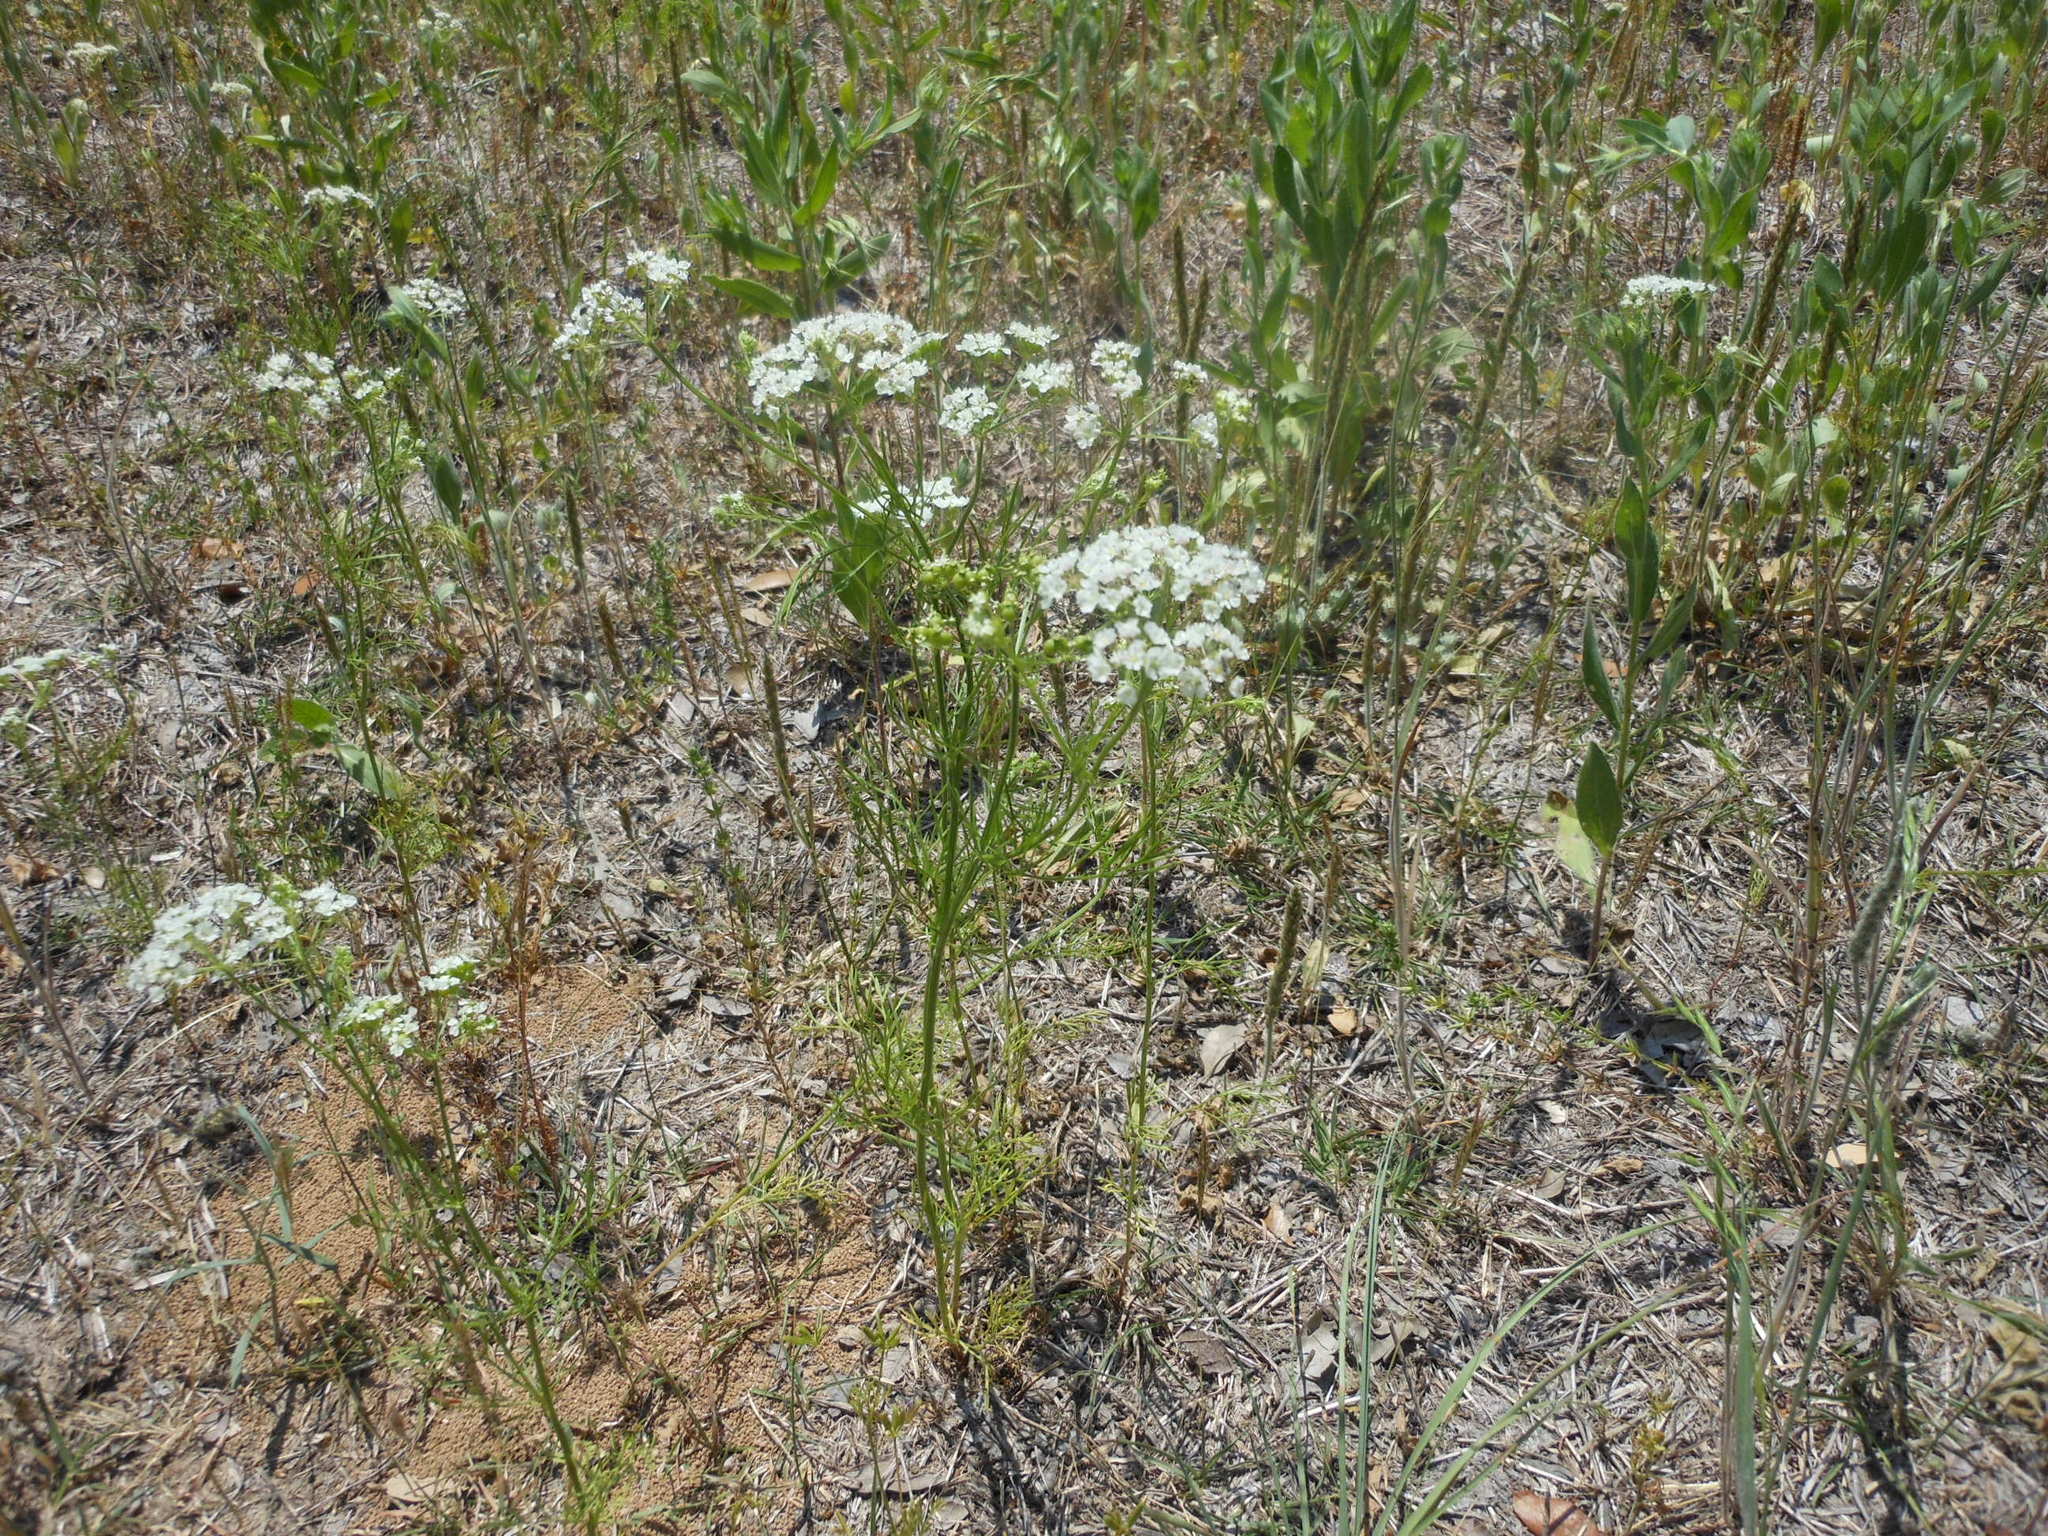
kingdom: Plantae
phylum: Tracheophyta
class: Magnoliopsida
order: Apiales
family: Apiaceae
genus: Atrema
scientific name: Atrema americanum
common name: Prairie-bishop
